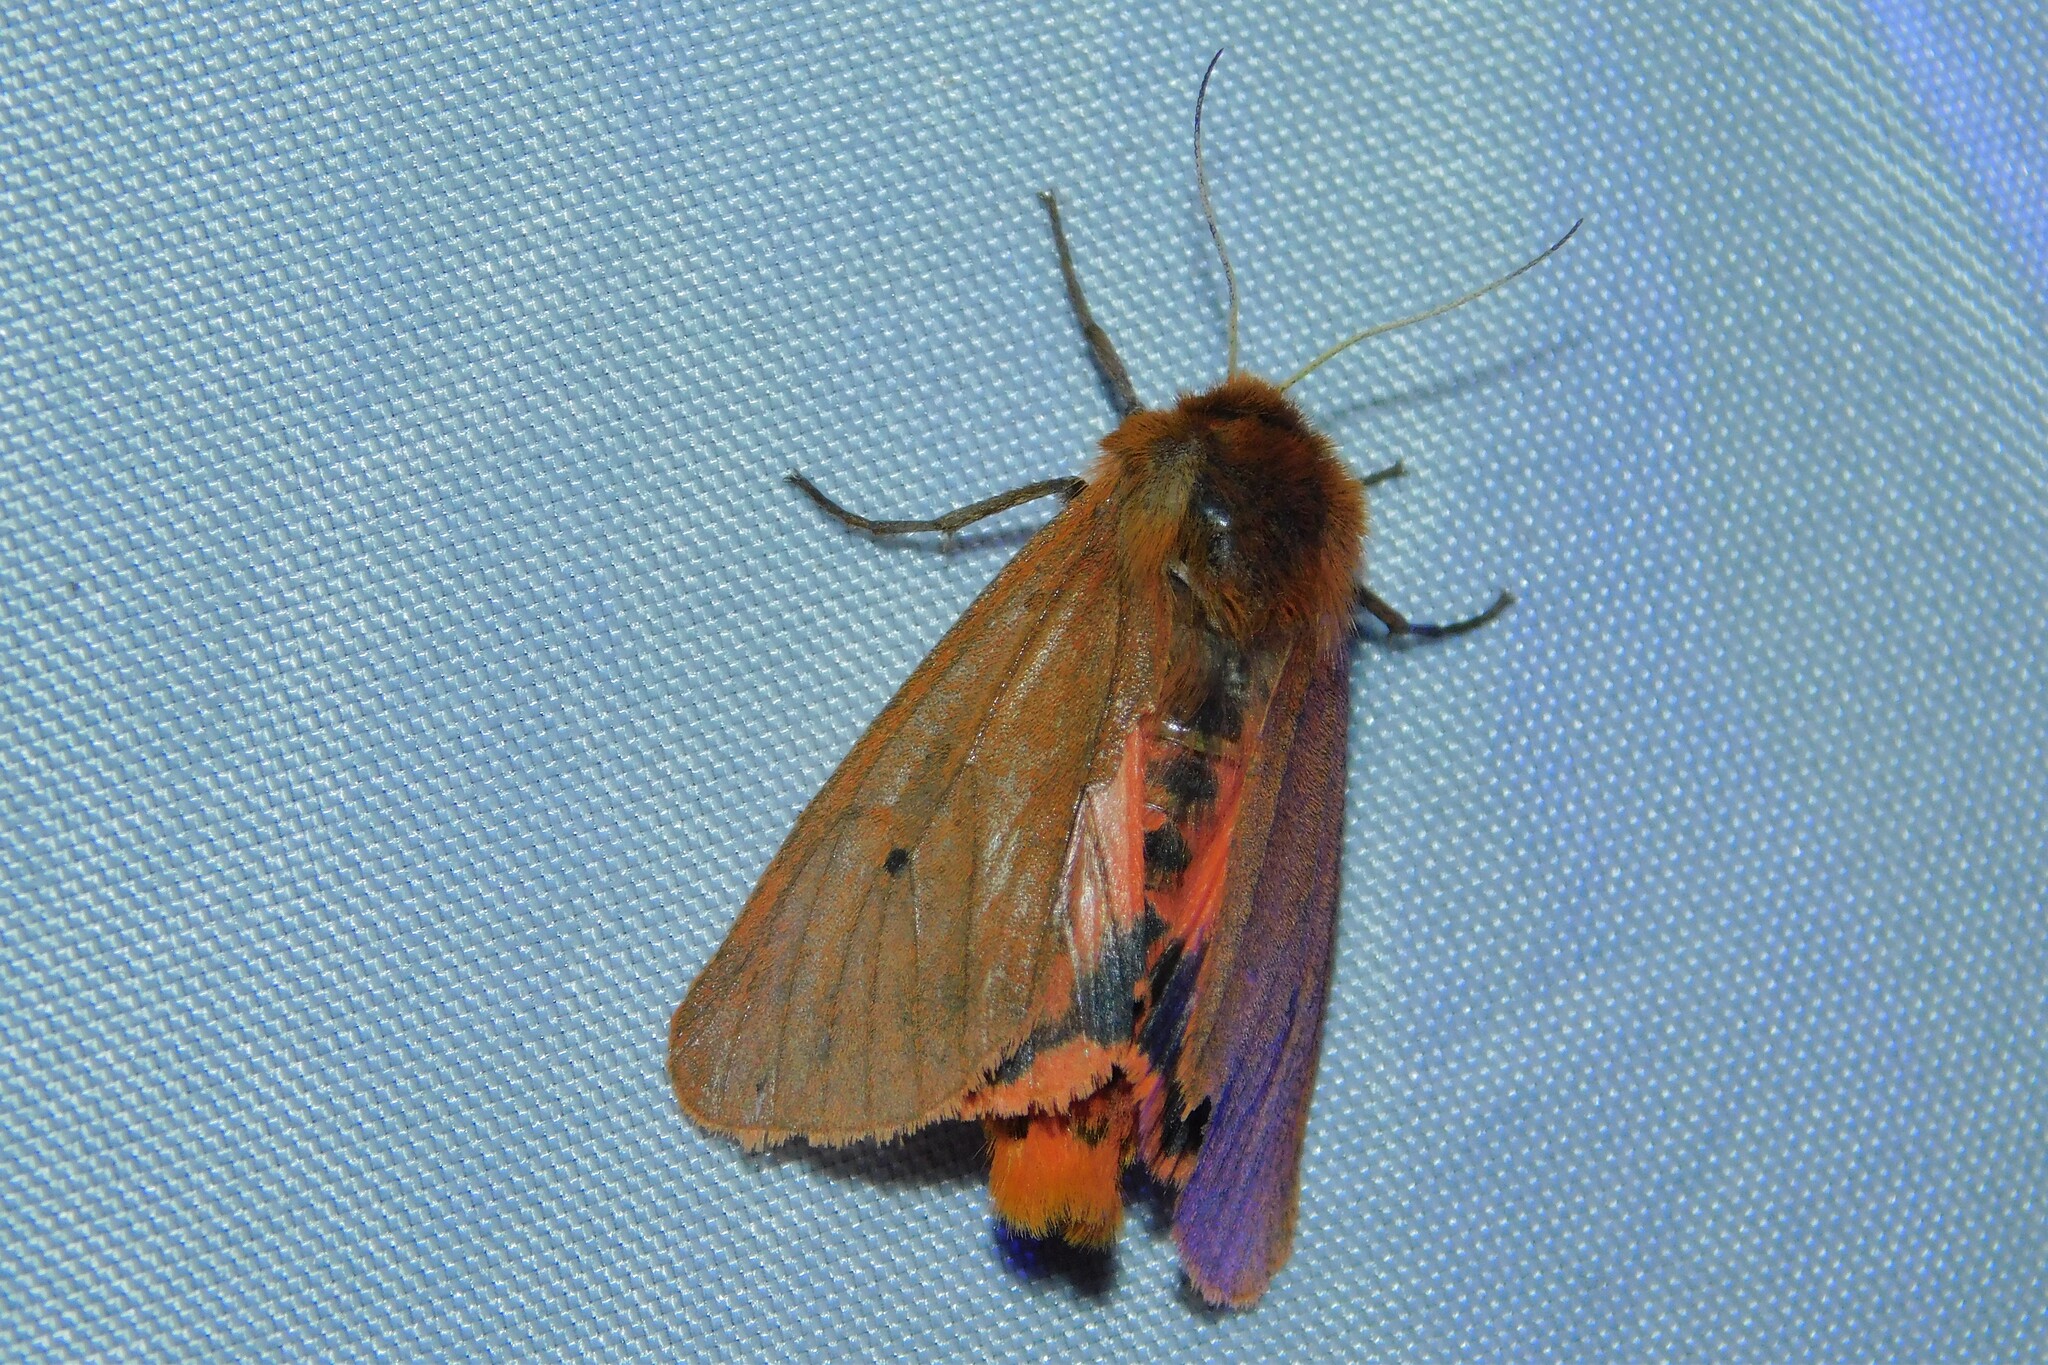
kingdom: Animalia
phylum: Arthropoda
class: Insecta
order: Lepidoptera
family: Erebidae
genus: Phragmatobia
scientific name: Phragmatobia fuliginosa
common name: Ruby tiger
